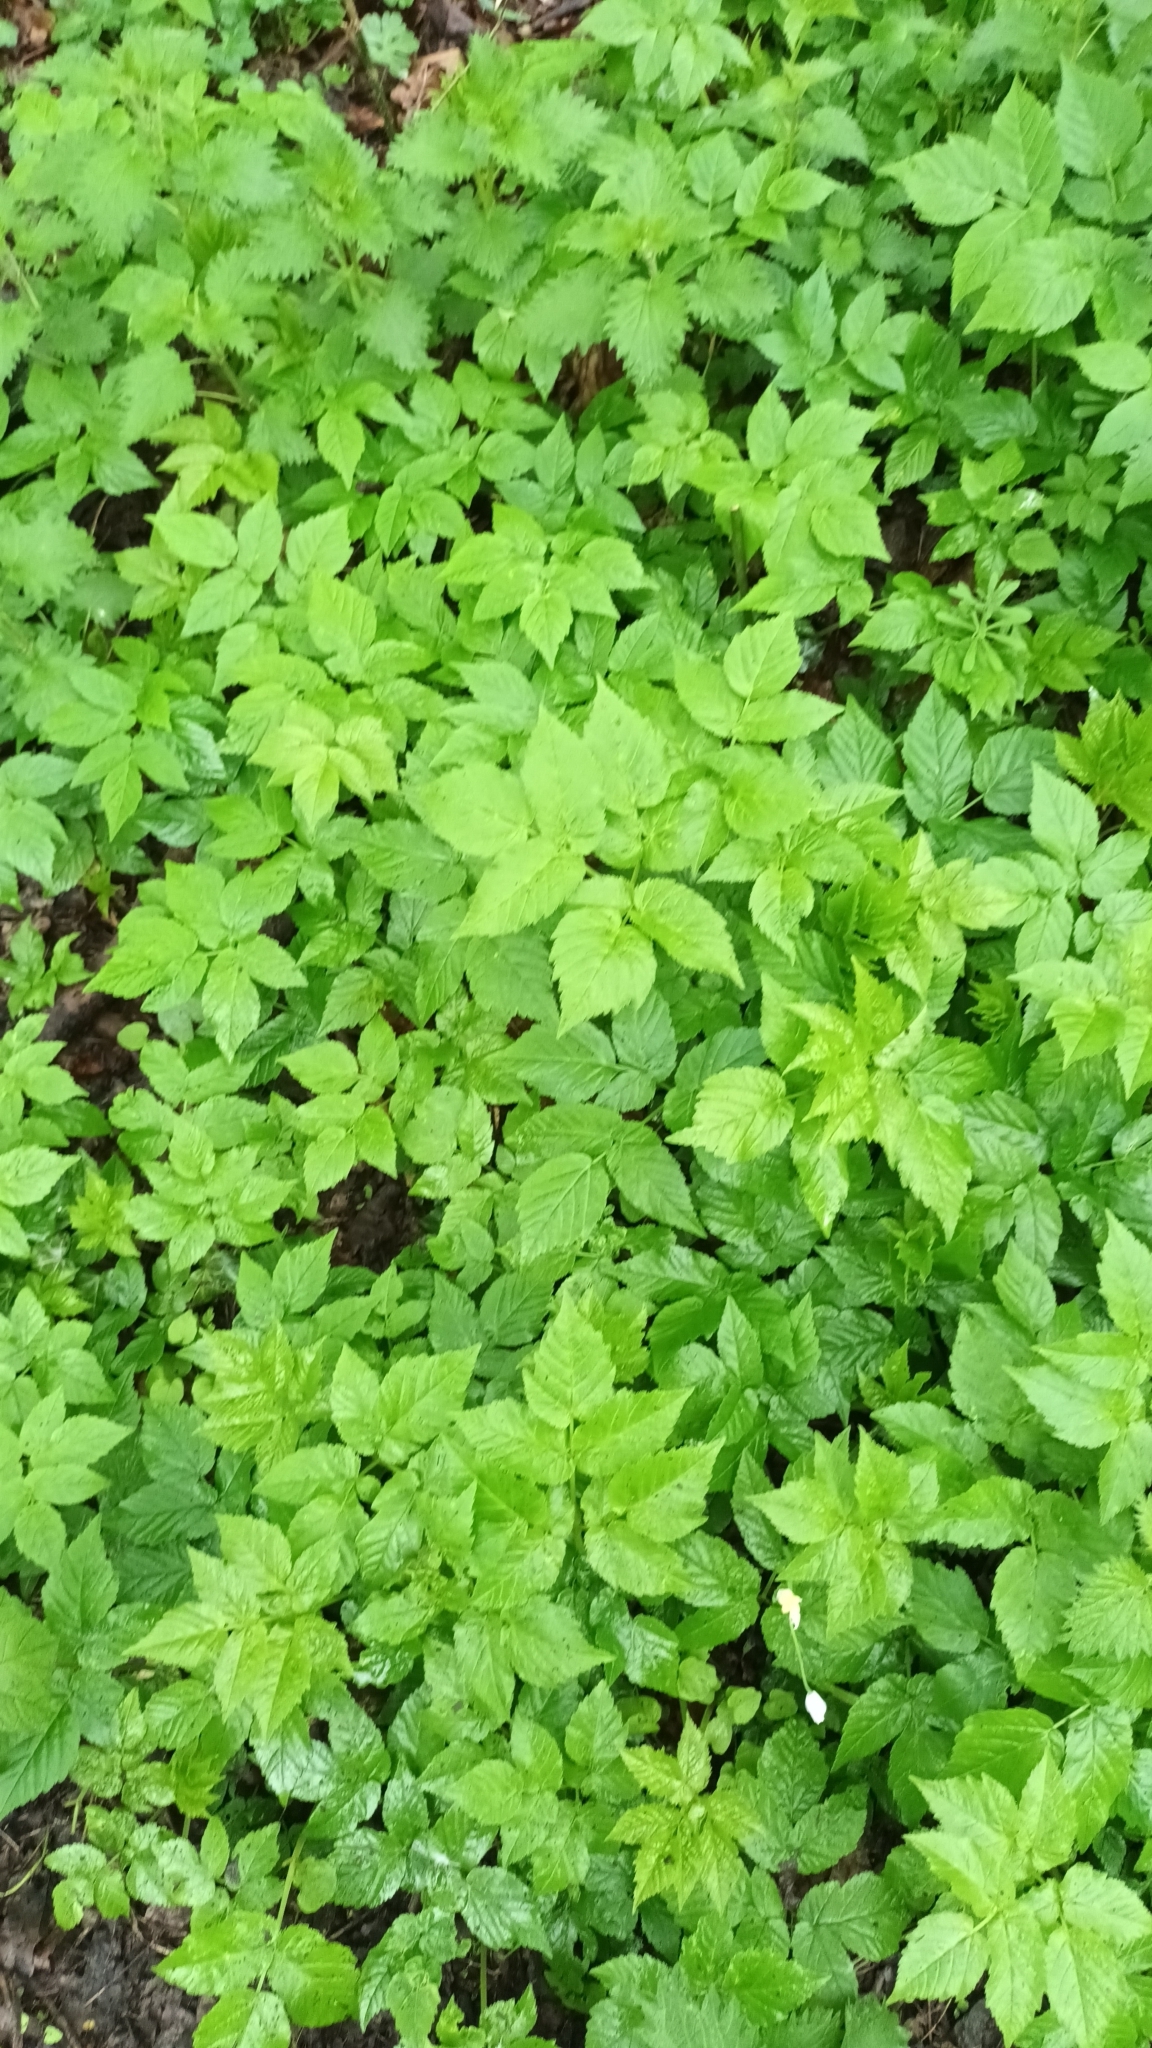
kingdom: Plantae
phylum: Tracheophyta
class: Magnoliopsida
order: Apiales
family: Apiaceae
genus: Aegopodium
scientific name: Aegopodium podagraria
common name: Ground-elder
